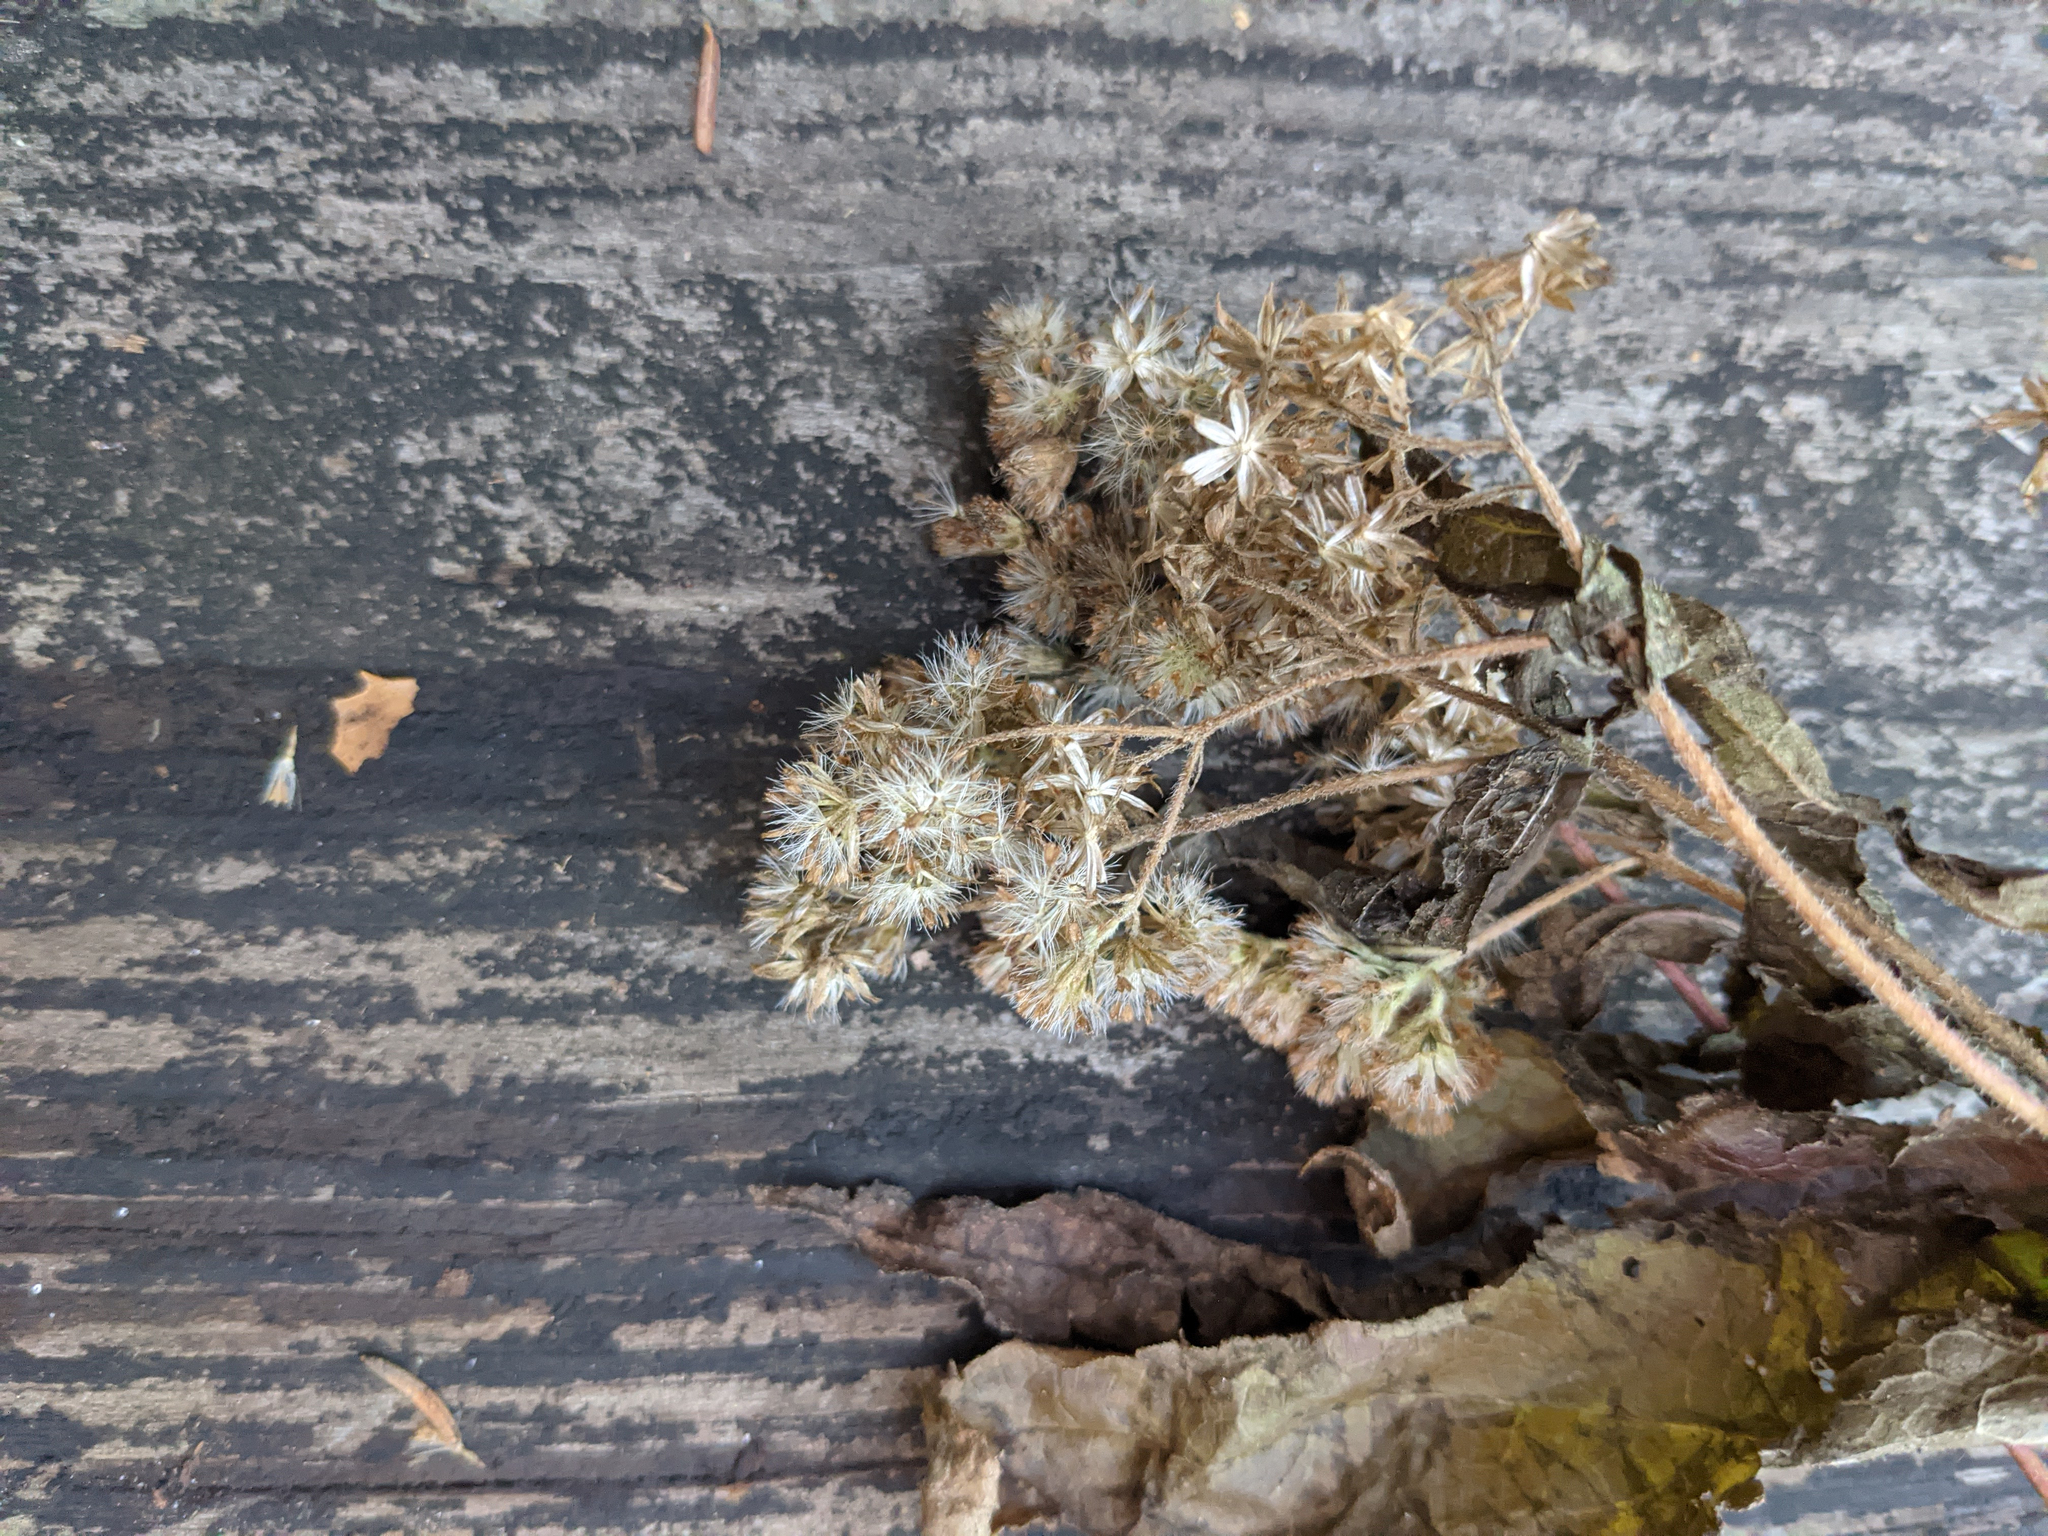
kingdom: Plantae
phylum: Tracheophyta
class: Magnoliopsida
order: Asterales
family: Asteraceae
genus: Eupatorium
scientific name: Eupatorium perfoliatum
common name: Boneset
